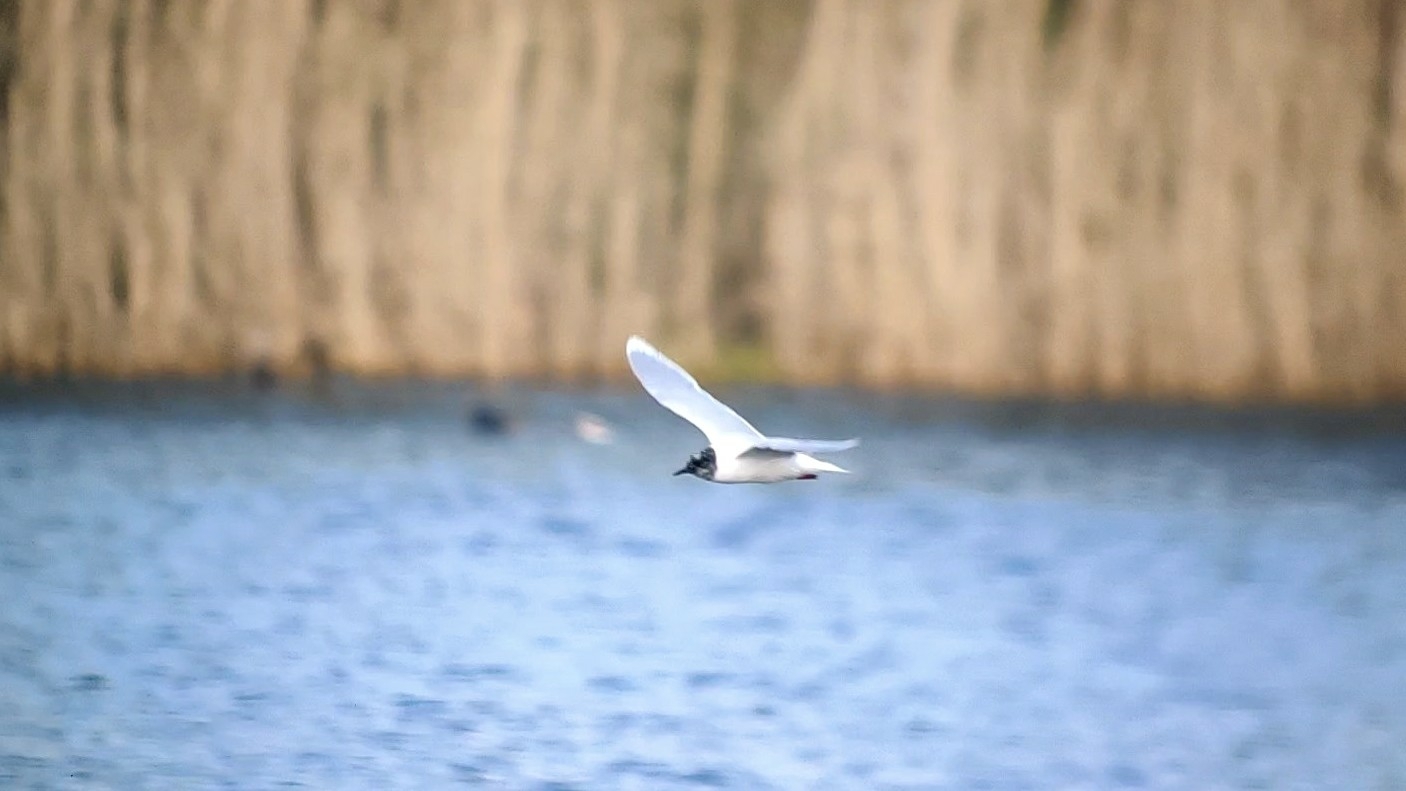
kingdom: Animalia
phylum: Chordata
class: Aves
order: Charadriiformes
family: Laridae
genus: Hydrocoloeus
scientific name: Hydrocoloeus minutus
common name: Little gull
